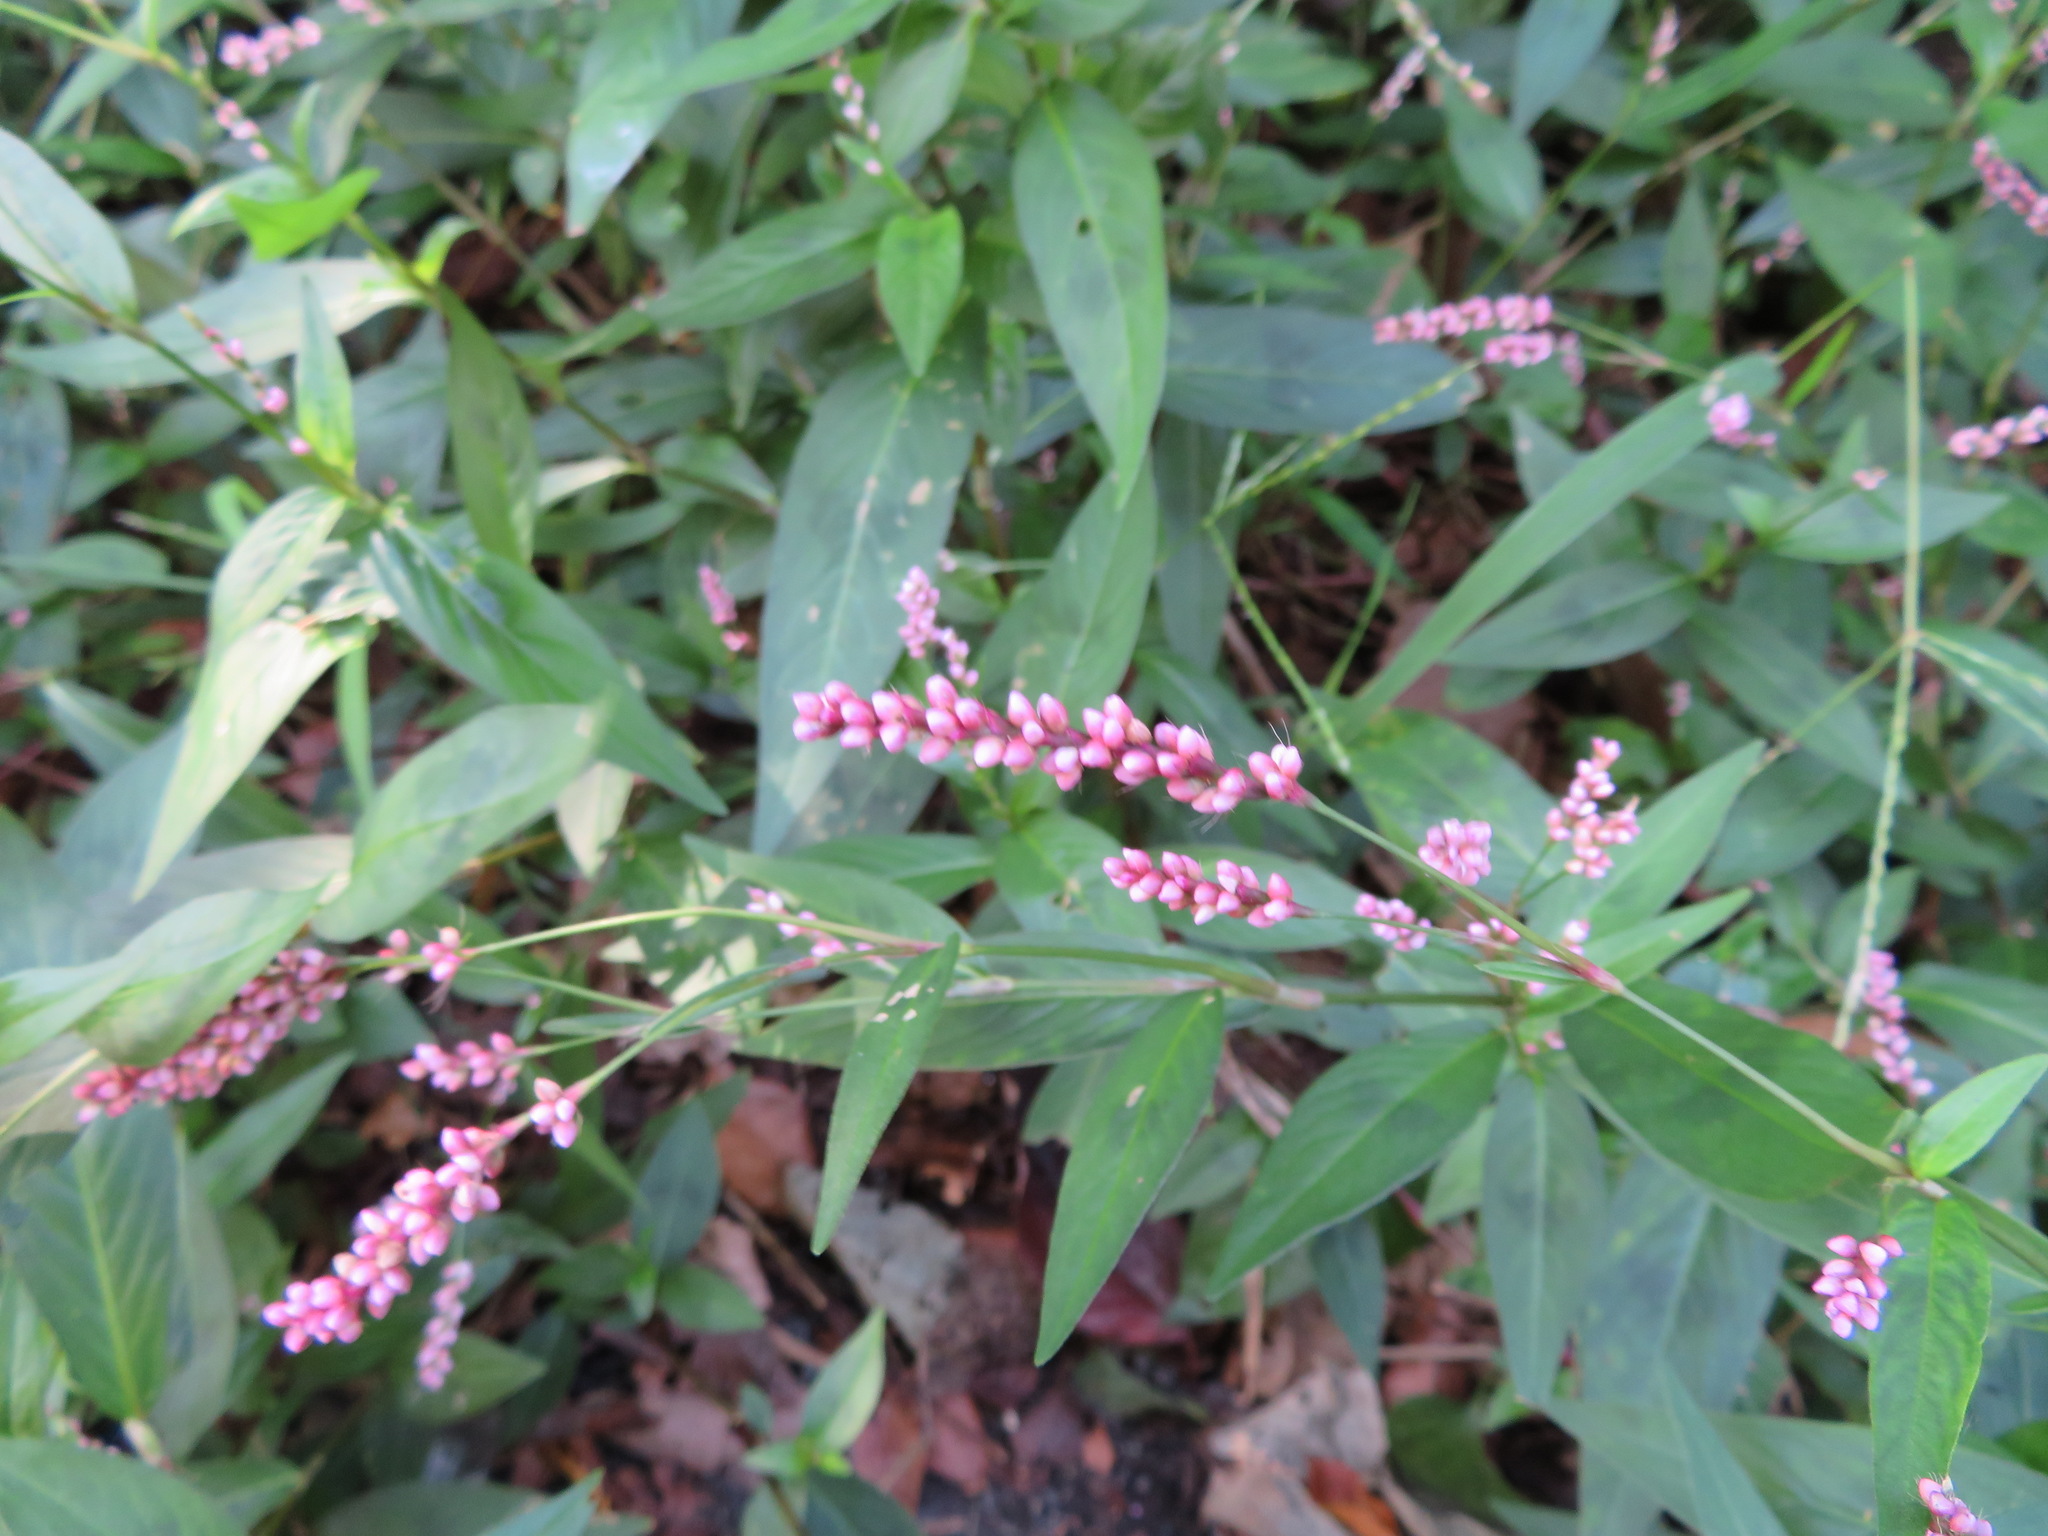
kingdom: Plantae
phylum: Tracheophyta
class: Magnoliopsida
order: Caryophyllales
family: Polygonaceae
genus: Persicaria
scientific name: Persicaria longiseta
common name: Bristly lady's-thumb
